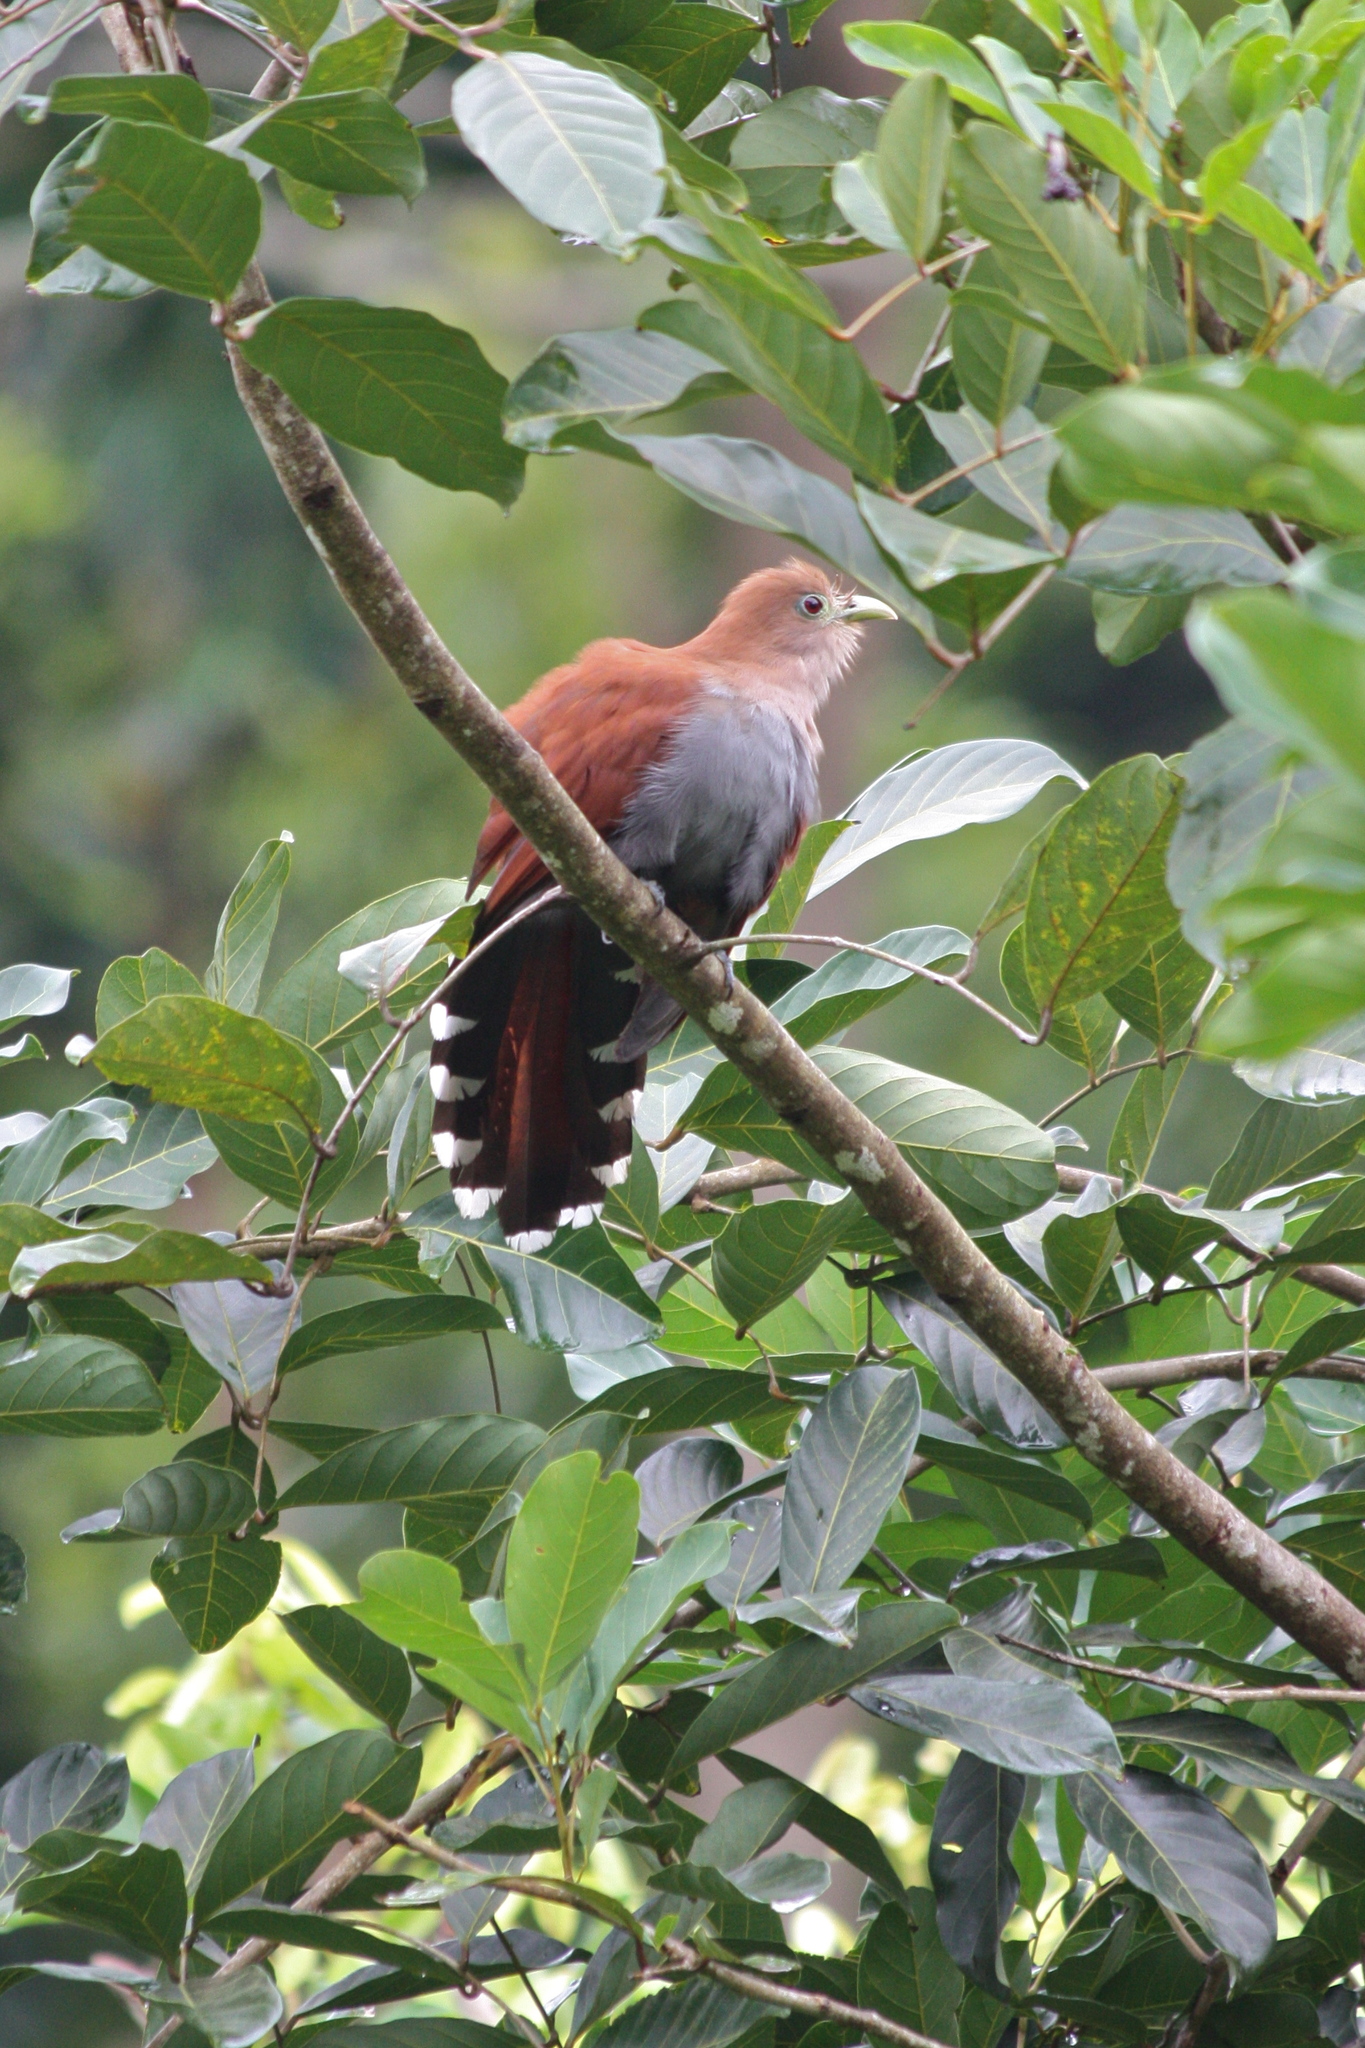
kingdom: Animalia
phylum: Chordata
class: Aves
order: Cuculiformes
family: Cuculidae
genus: Piaya
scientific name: Piaya cayana
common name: Squirrel cuckoo
